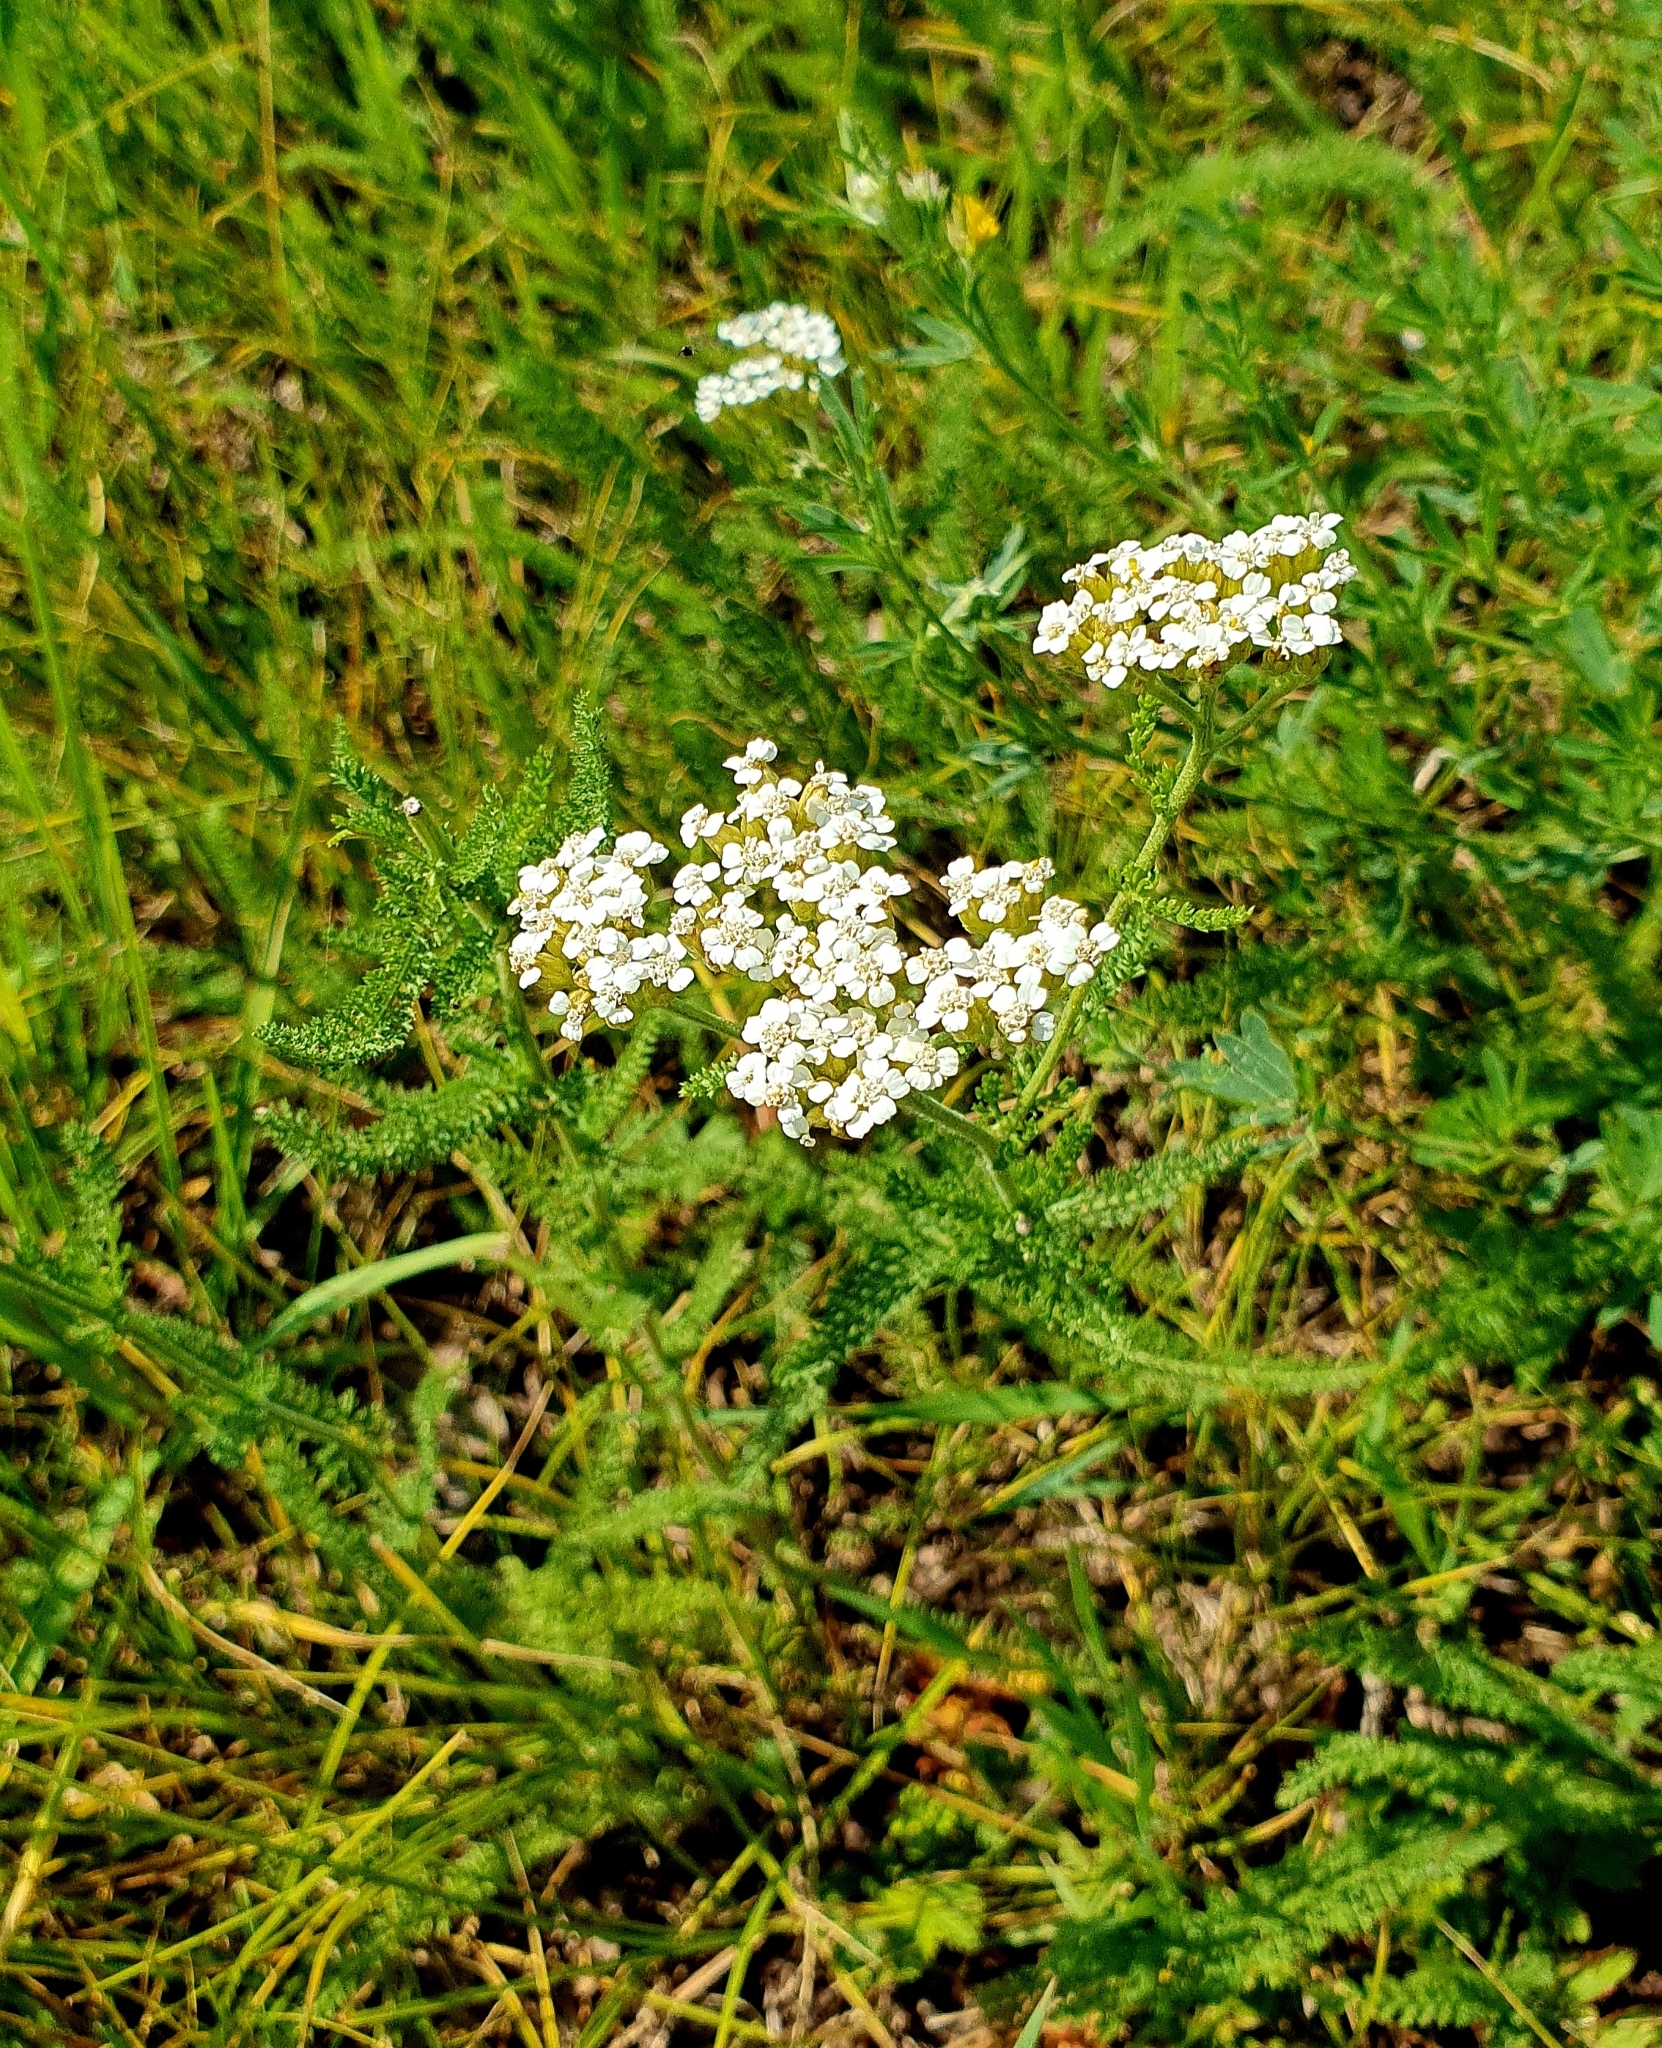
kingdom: Plantae
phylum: Tracheophyta
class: Magnoliopsida
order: Asterales
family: Asteraceae
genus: Achillea
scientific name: Achillea millefolium
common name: Yarrow
